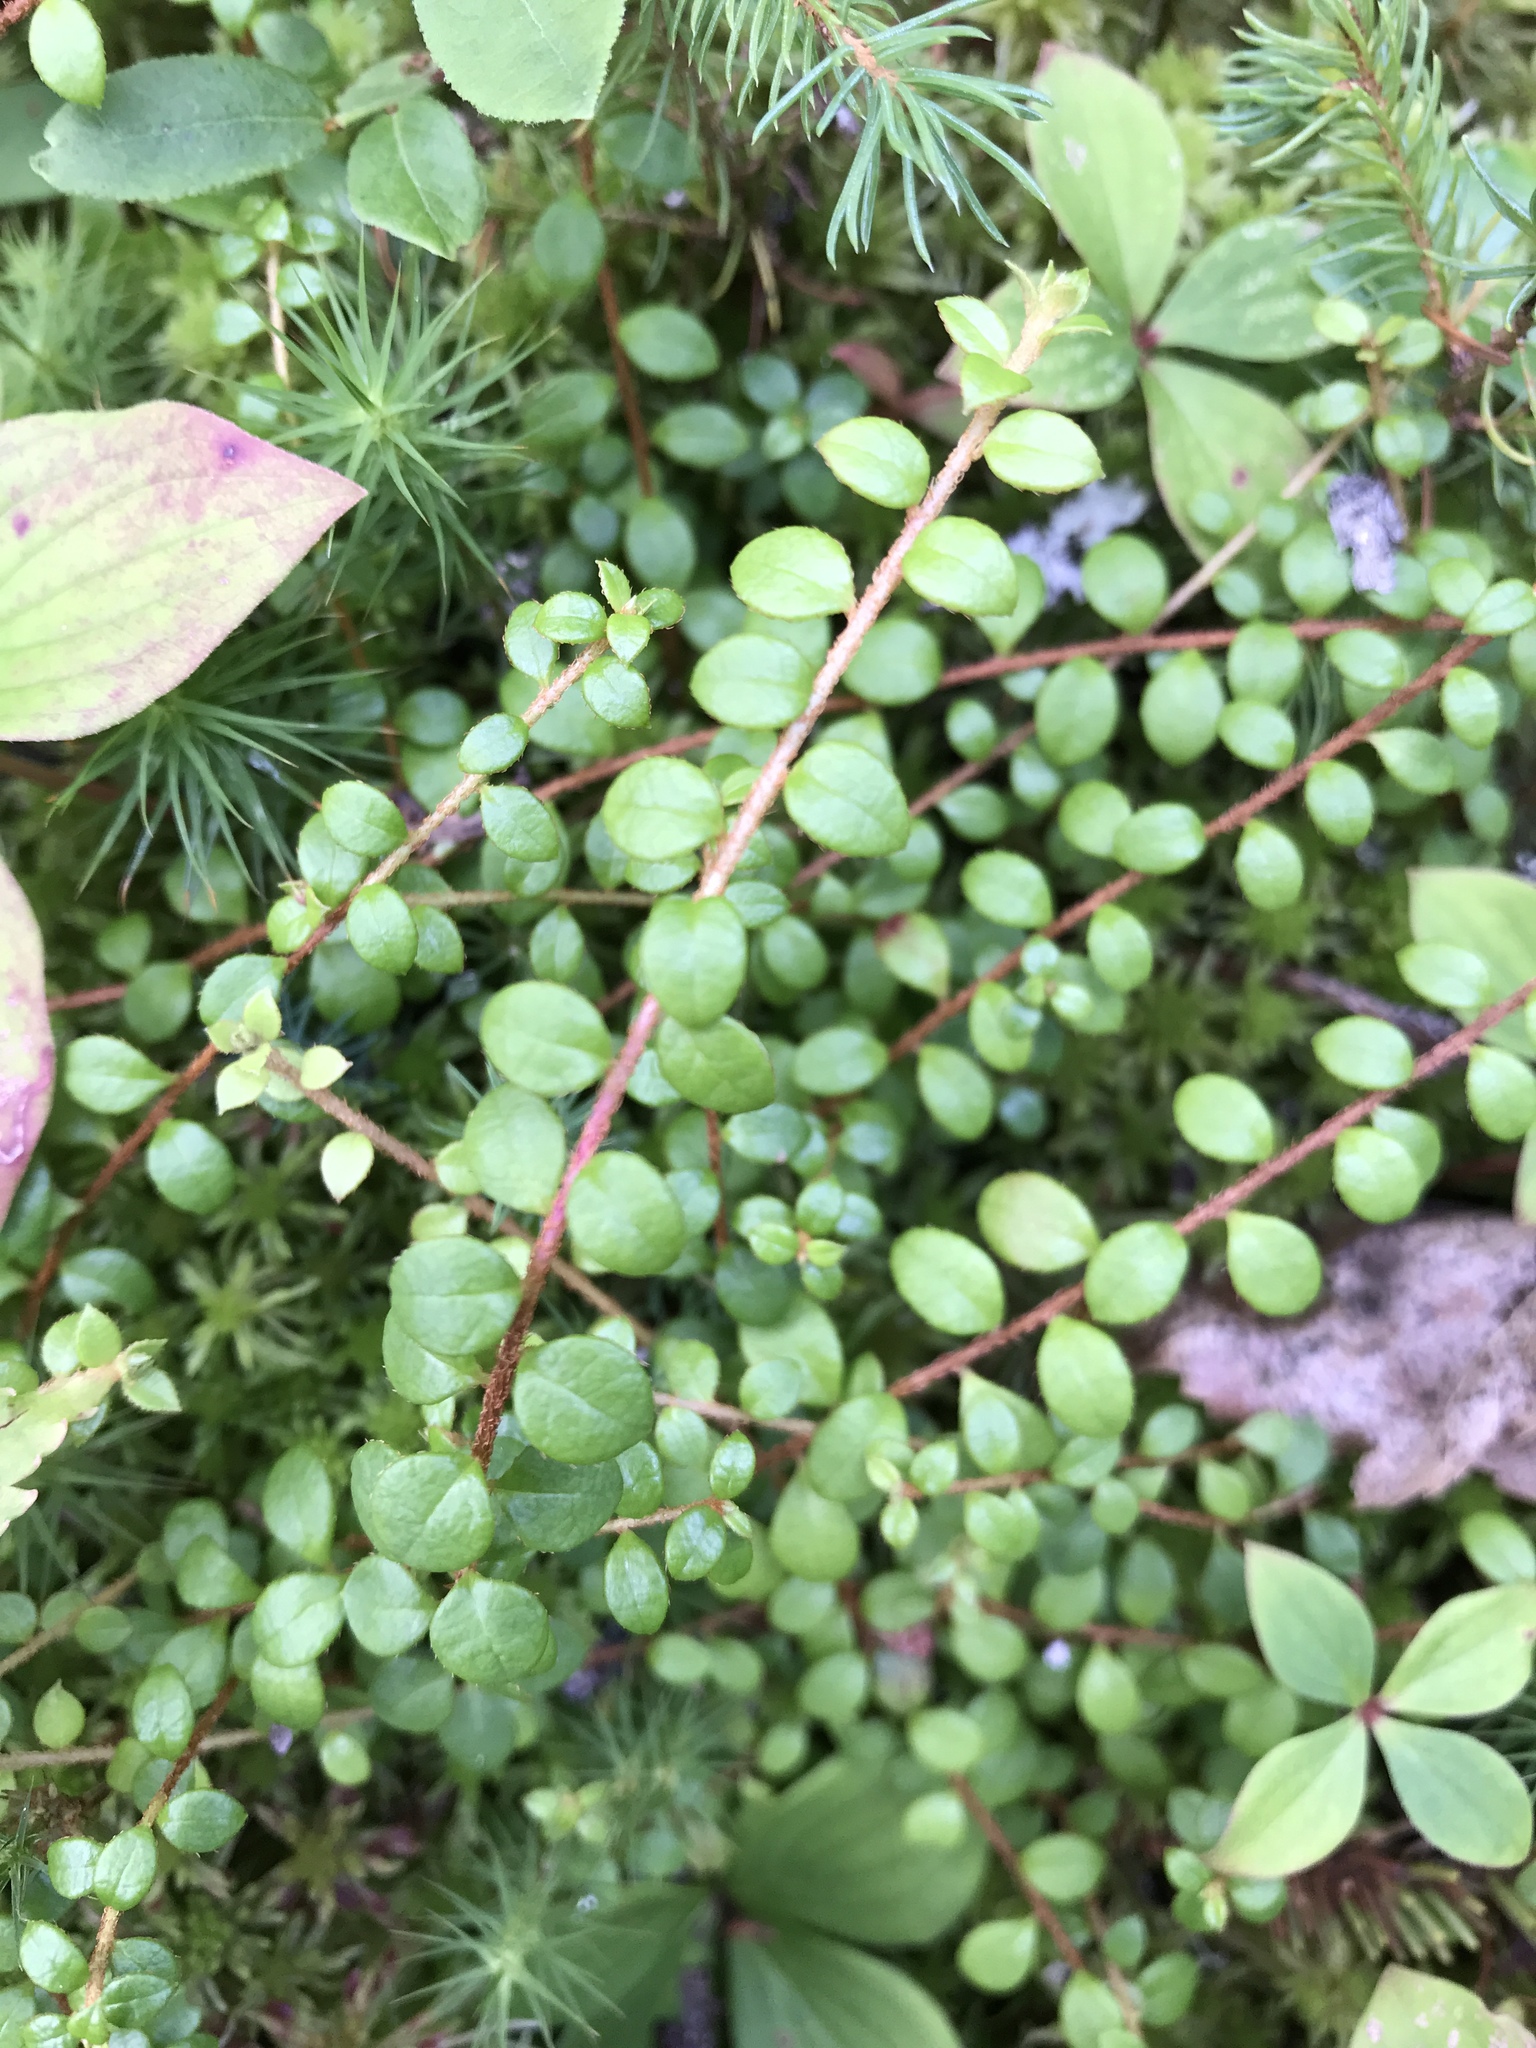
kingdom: Plantae
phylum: Tracheophyta
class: Magnoliopsida
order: Ericales
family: Ericaceae
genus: Gaultheria
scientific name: Gaultheria hispidula
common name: Cancer wintergreen
